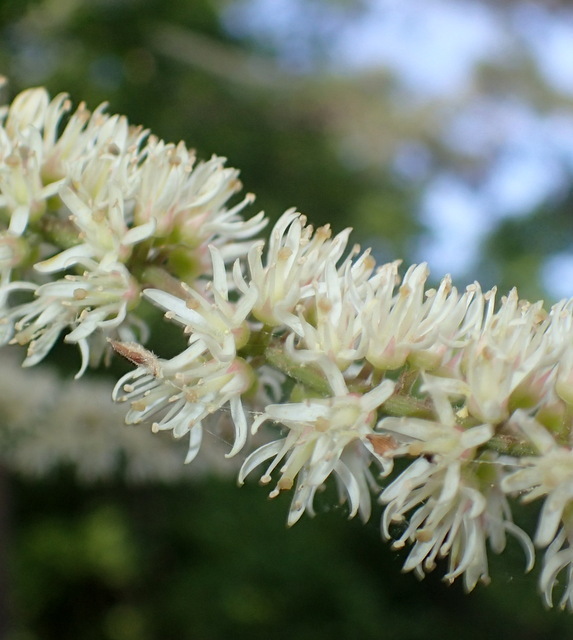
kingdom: Plantae
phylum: Tracheophyta
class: Magnoliopsida
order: Saxifragales
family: Iteaceae
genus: Itea
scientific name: Itea virginica
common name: Sweetspire
